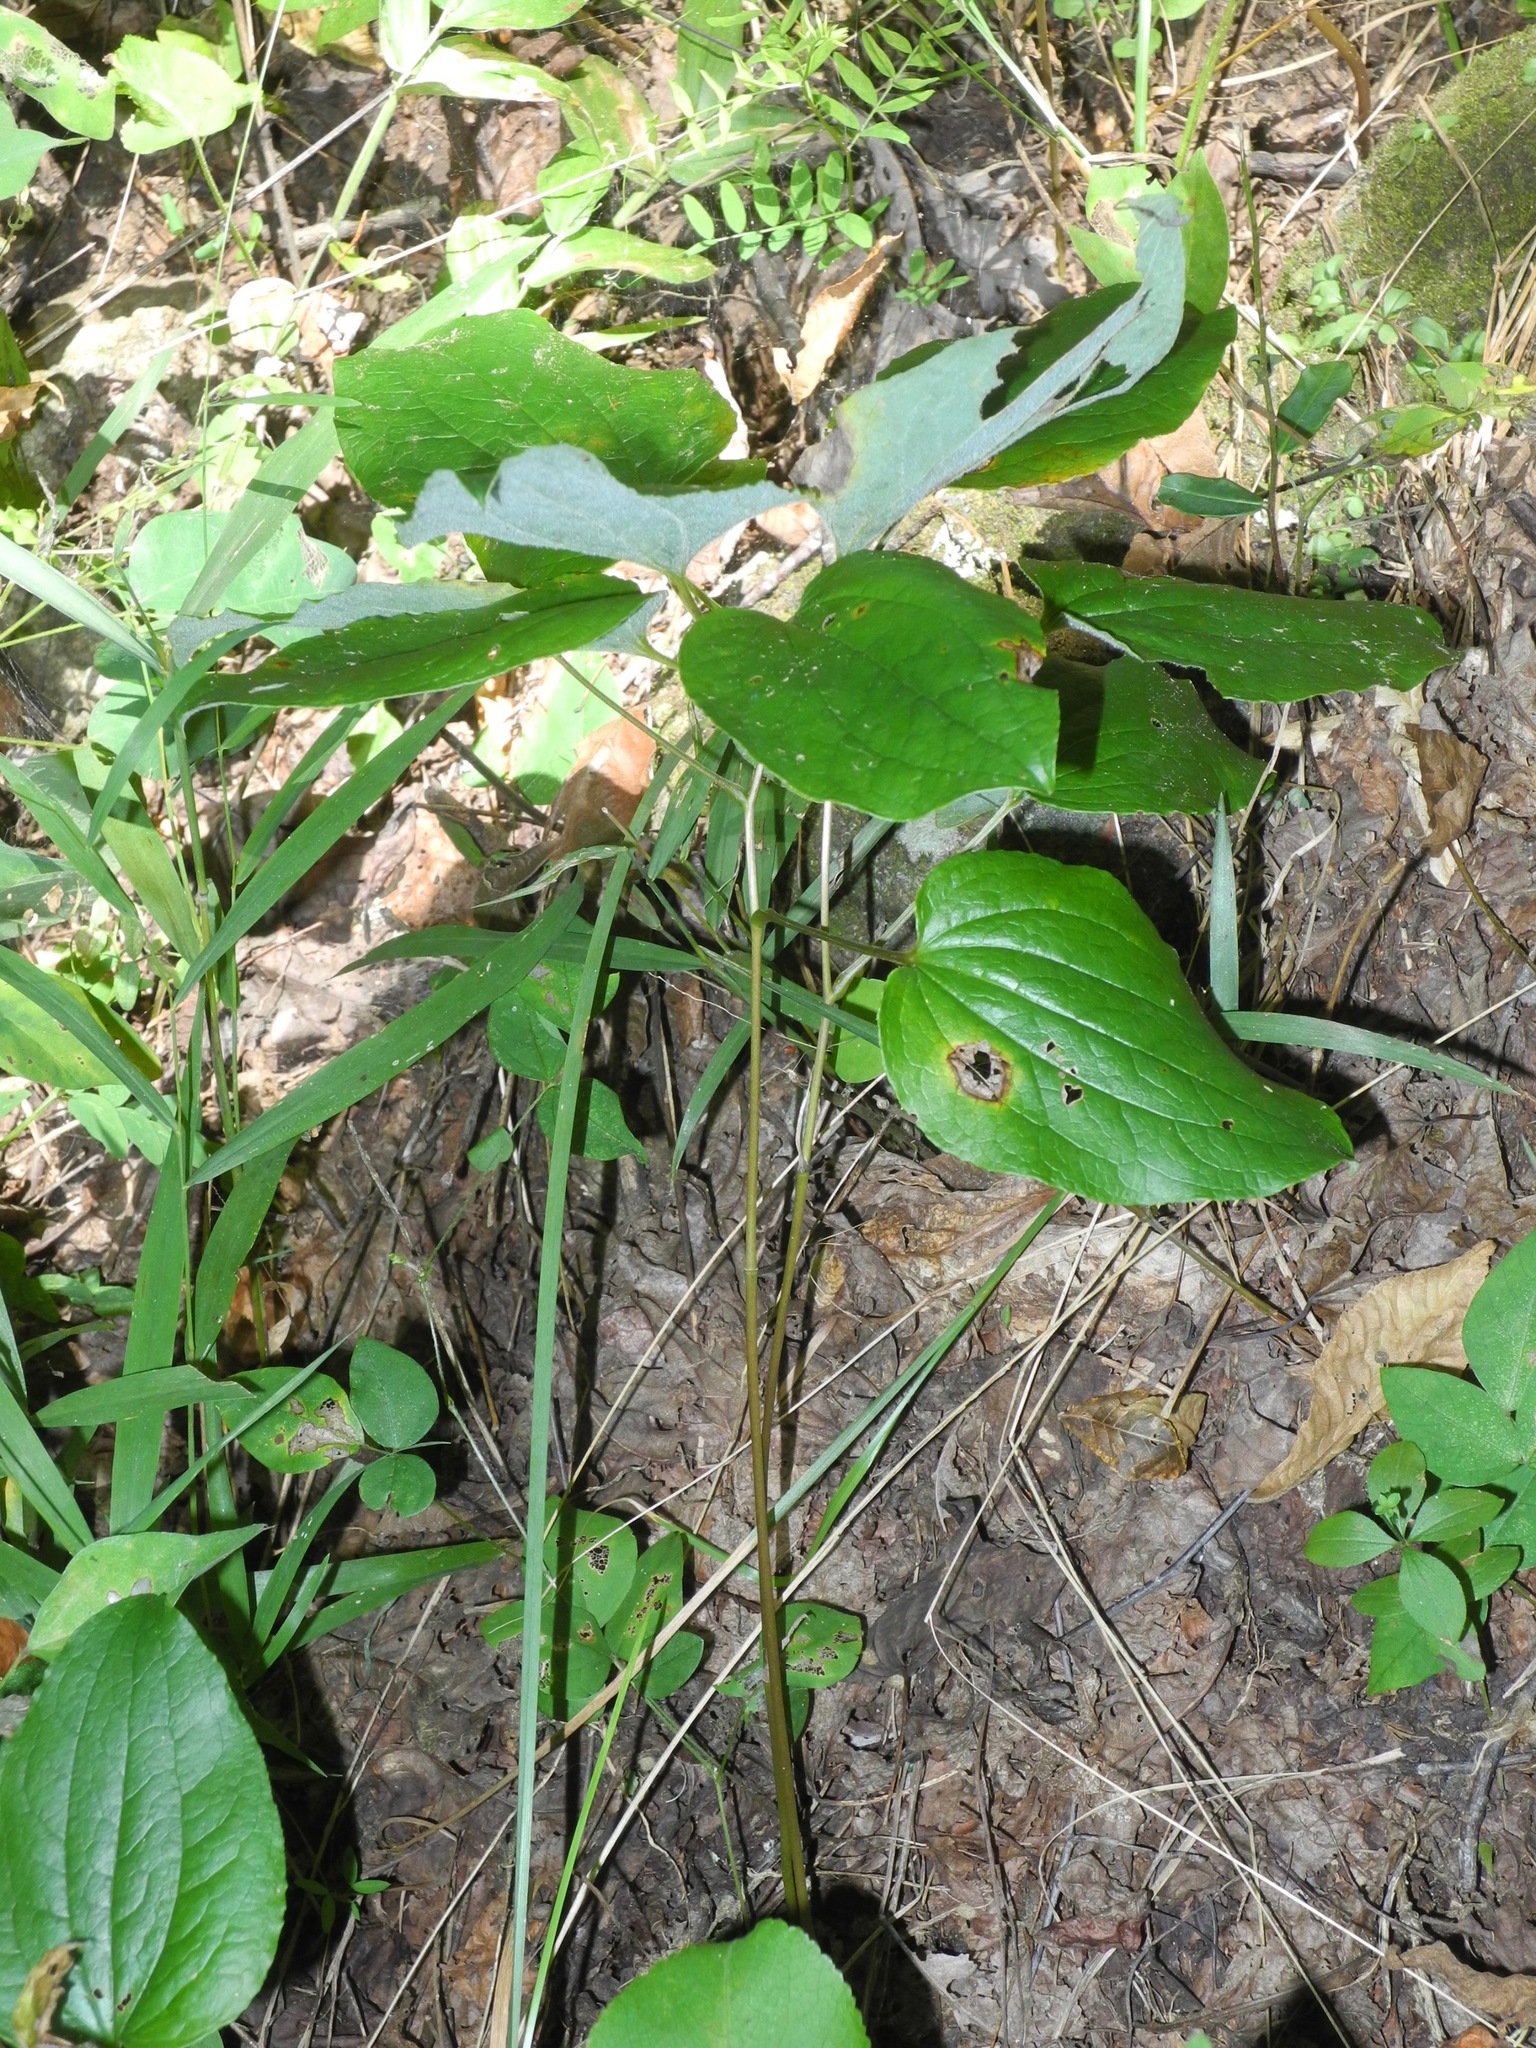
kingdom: Plantae
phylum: Tracheophyta
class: Liliopsida
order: Liliales
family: Smilacaceae
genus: Smilax
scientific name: Smilax hugeri
